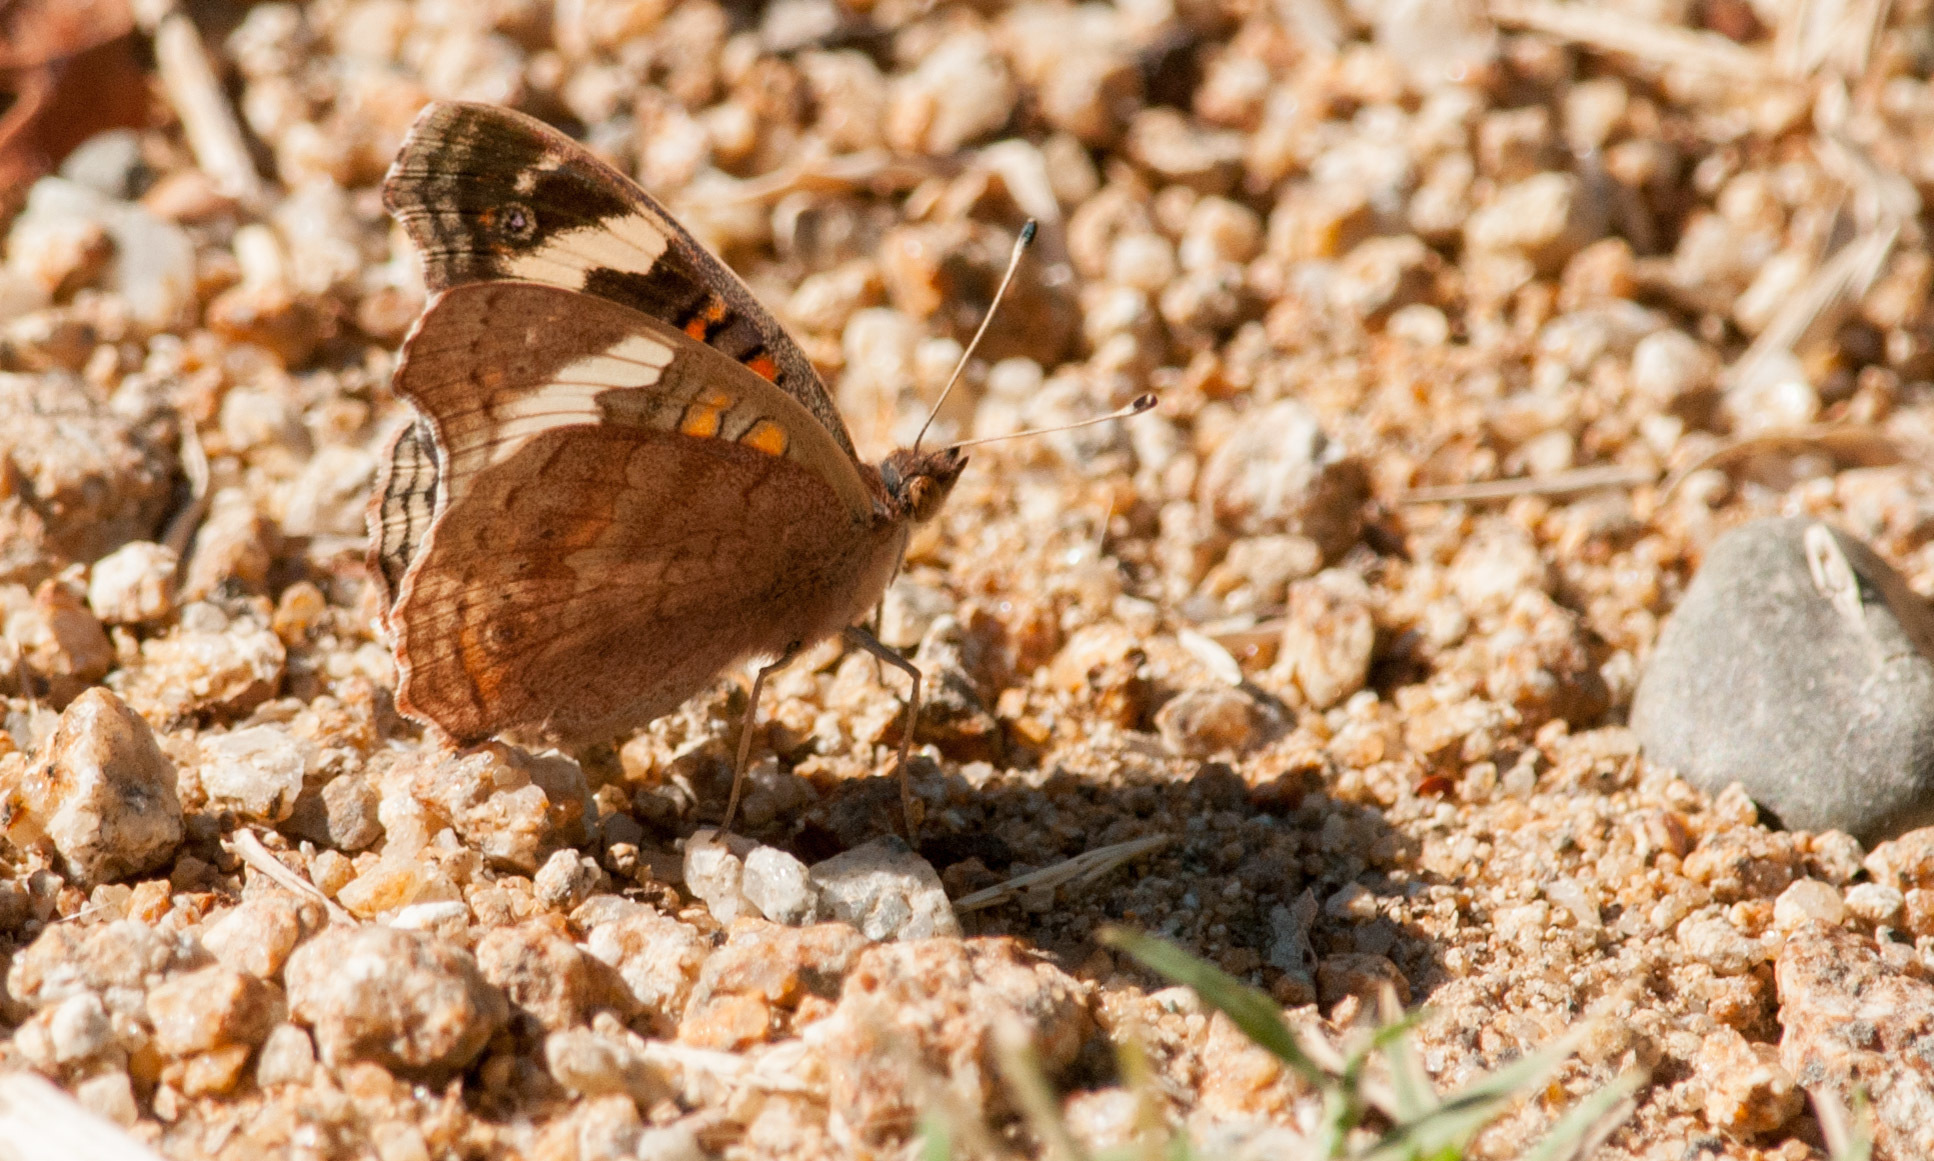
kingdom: Animalia
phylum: Arthropoda
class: Insecta
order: Lepidoptera
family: Nymphalidae
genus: Junonia
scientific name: Junonia grisea
